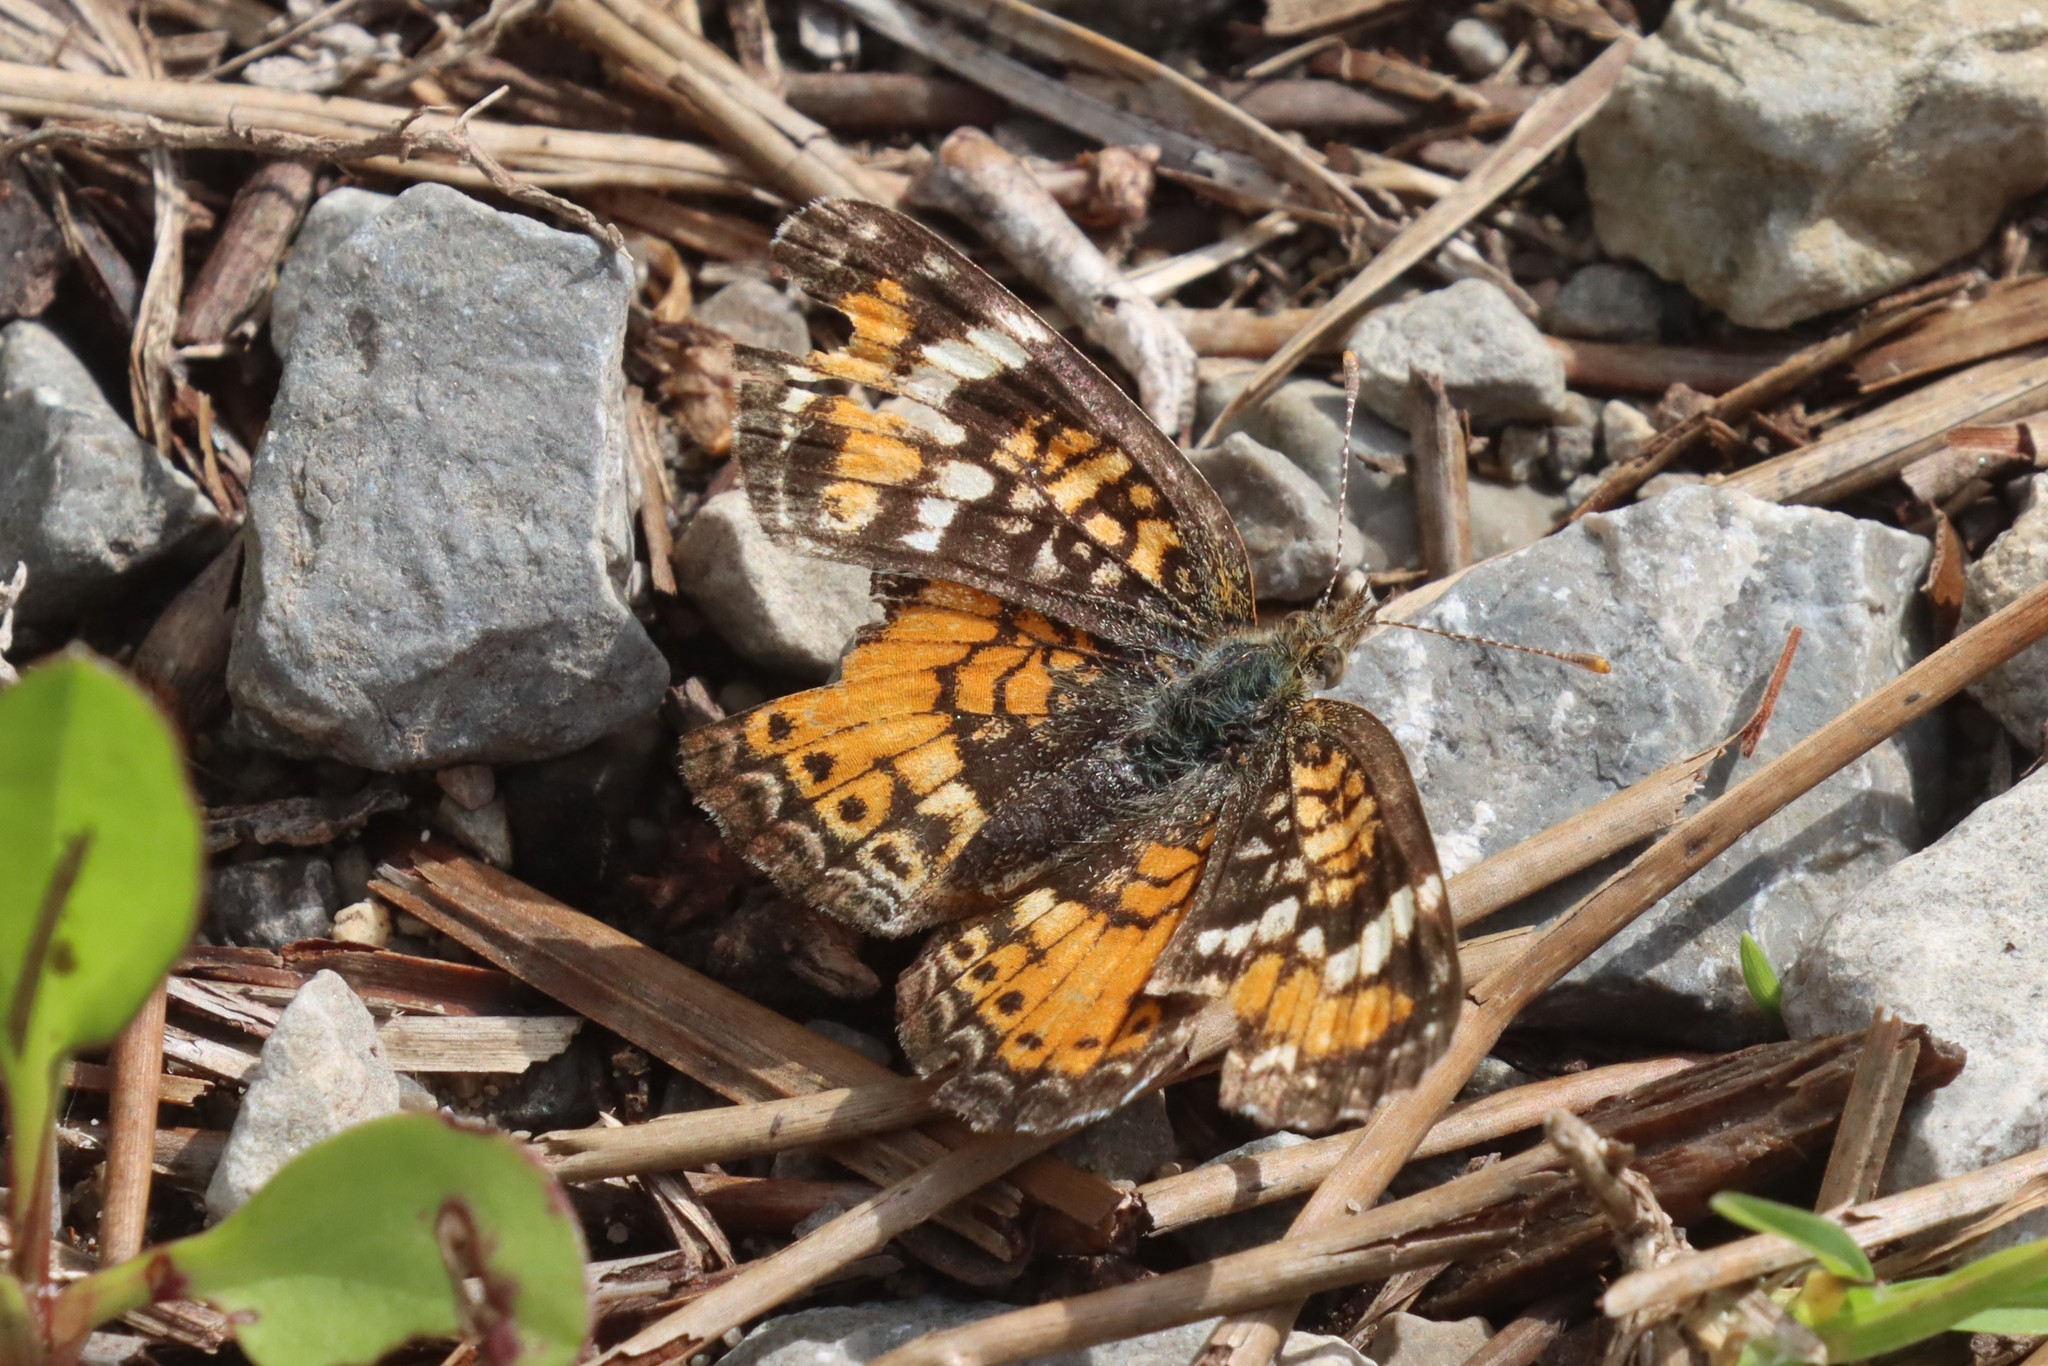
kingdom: Animalia
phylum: Arthropoda
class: Insecta
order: Lepidoptera
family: Nymphalidae
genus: Phyciodes
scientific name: Phyciodes phaon
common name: Phaon crescent
